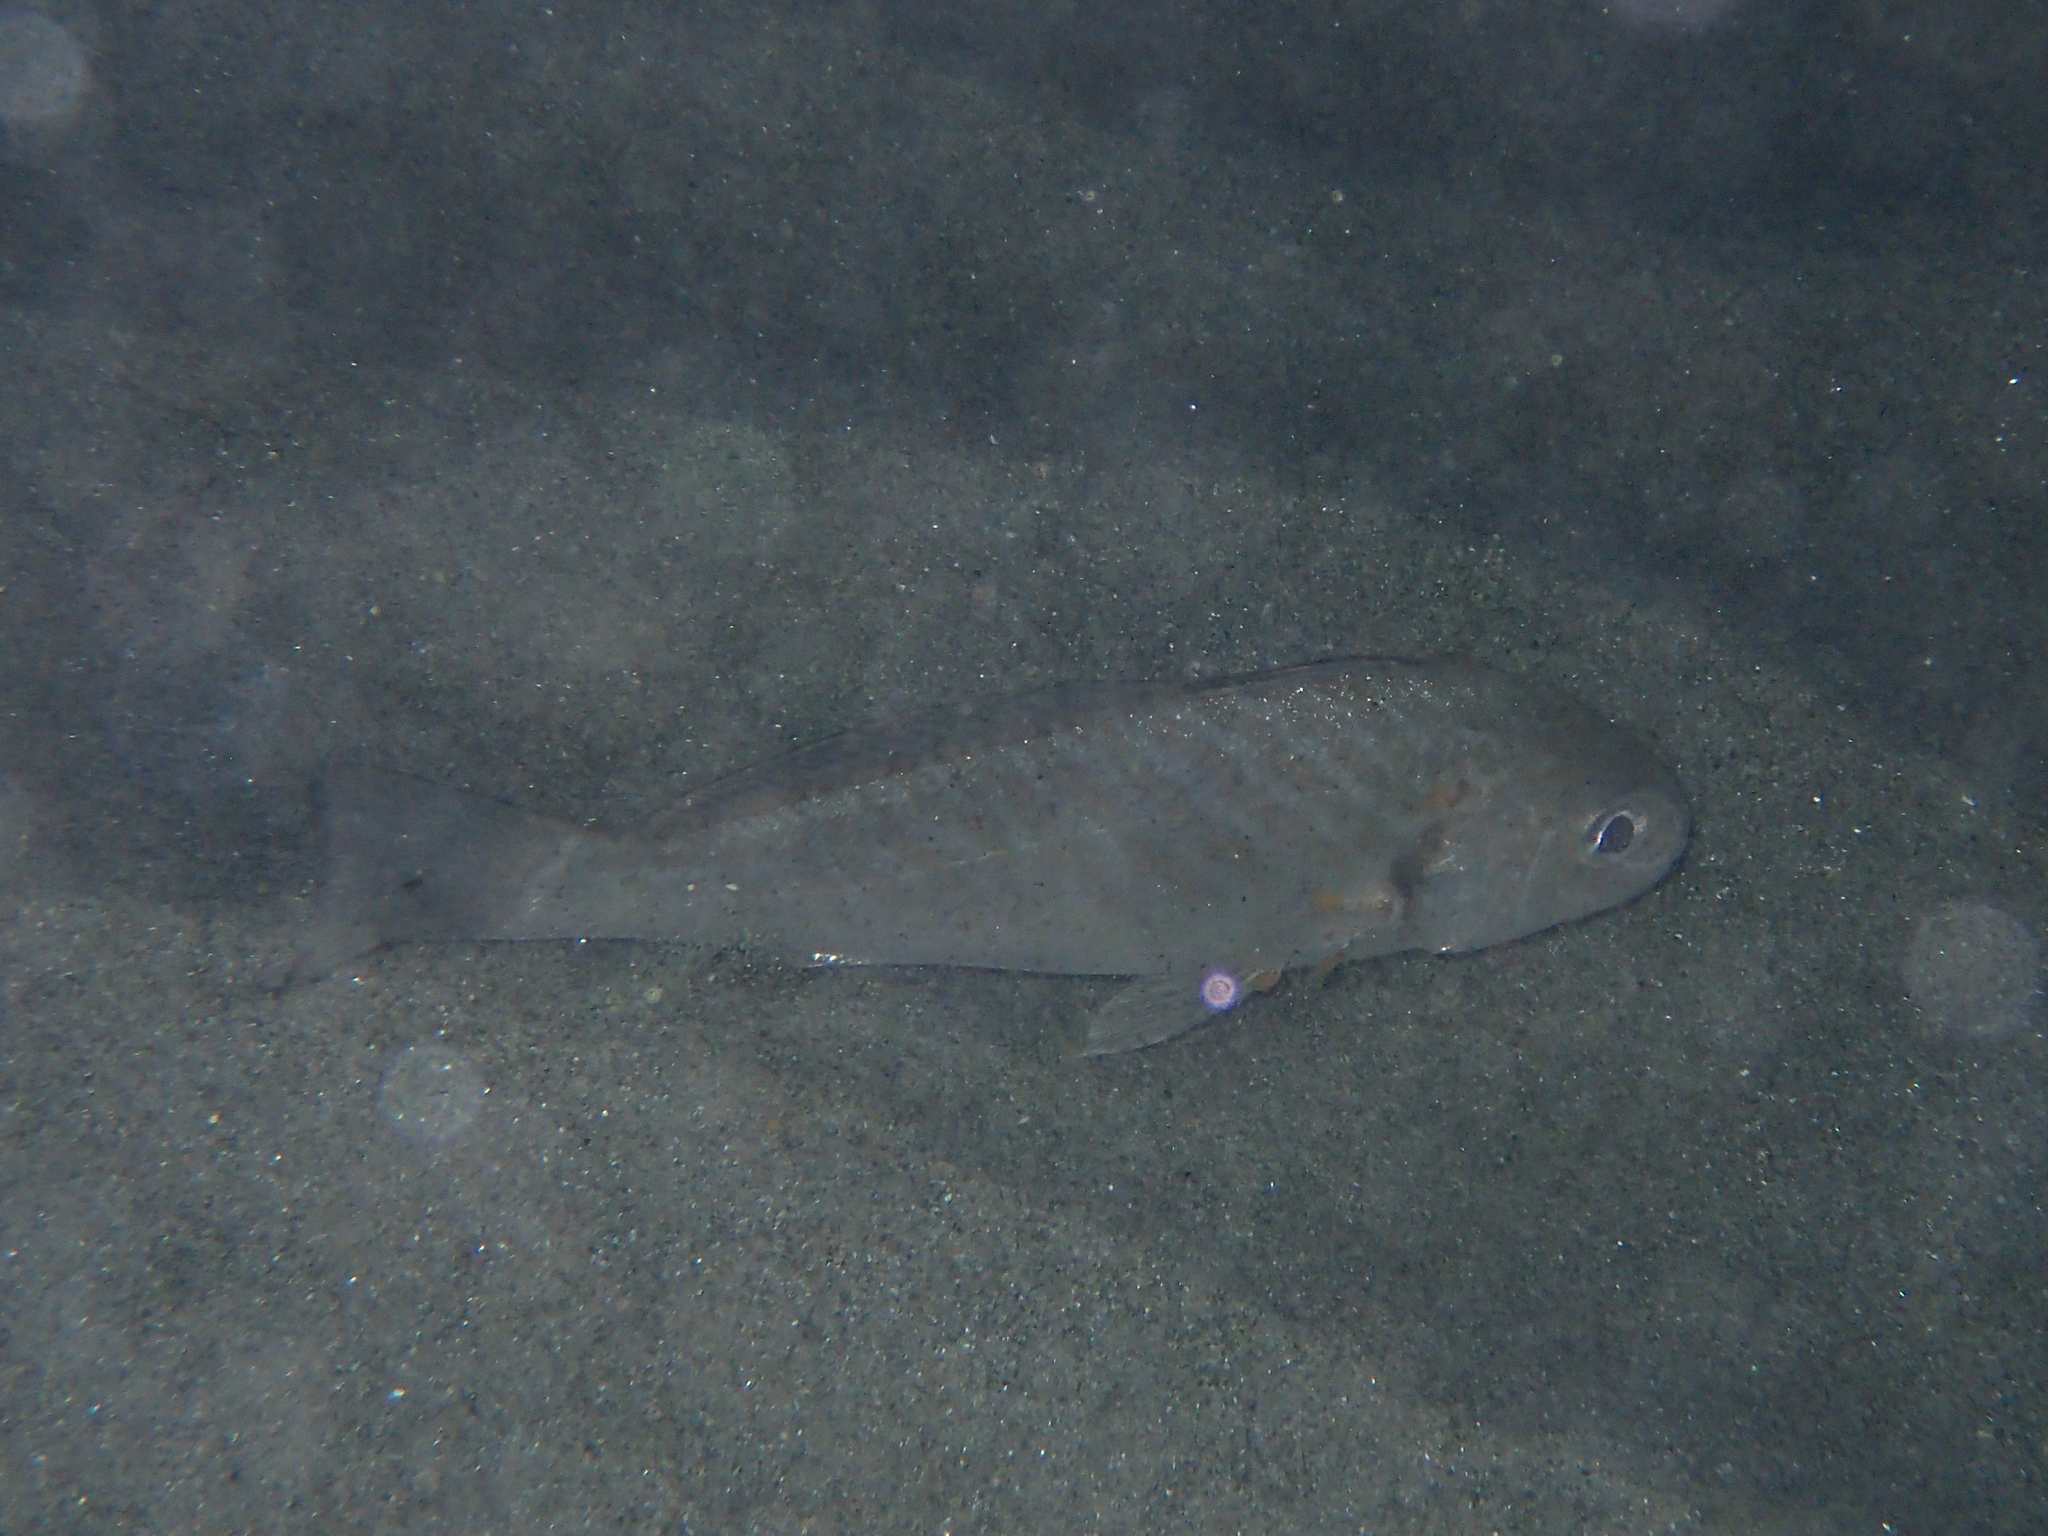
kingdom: Animalia
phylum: Chordata
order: Perciformes
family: Sciaenidae
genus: Umbrina
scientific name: Umbrina cirrosa
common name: Shi drum
